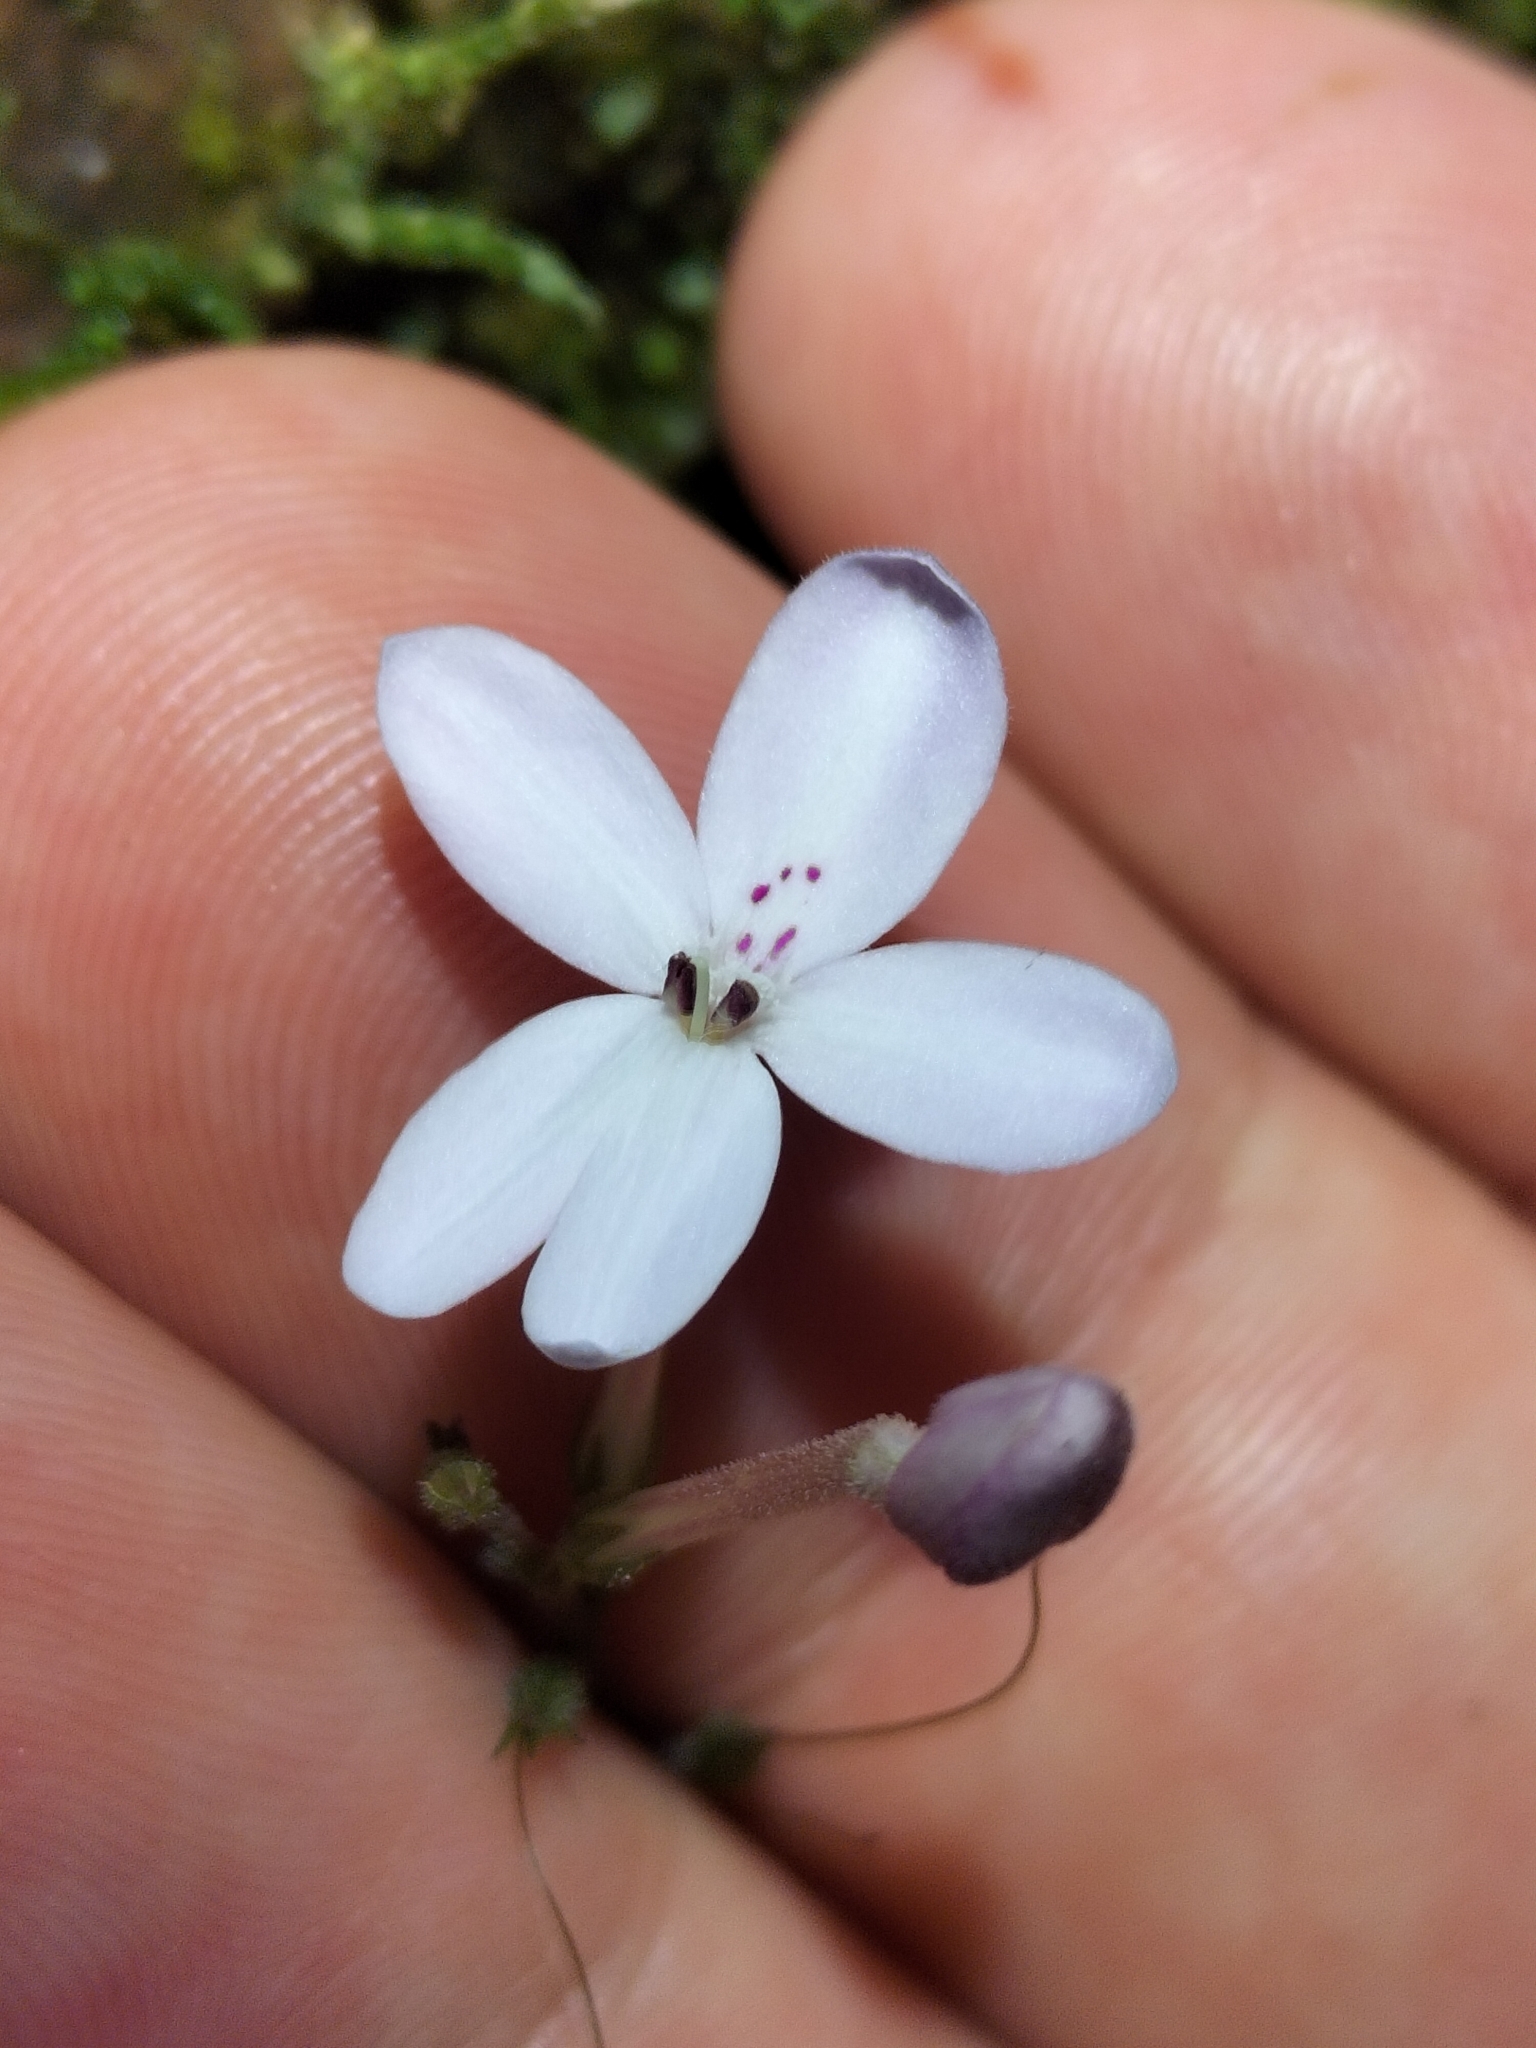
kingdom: Plantae
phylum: Tracheophyta
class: Magnoliopsida
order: Lamiales
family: Acanthaceae
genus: Pseuderanthemum
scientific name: Pseuderanthemum variabile
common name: Night and afternoon
